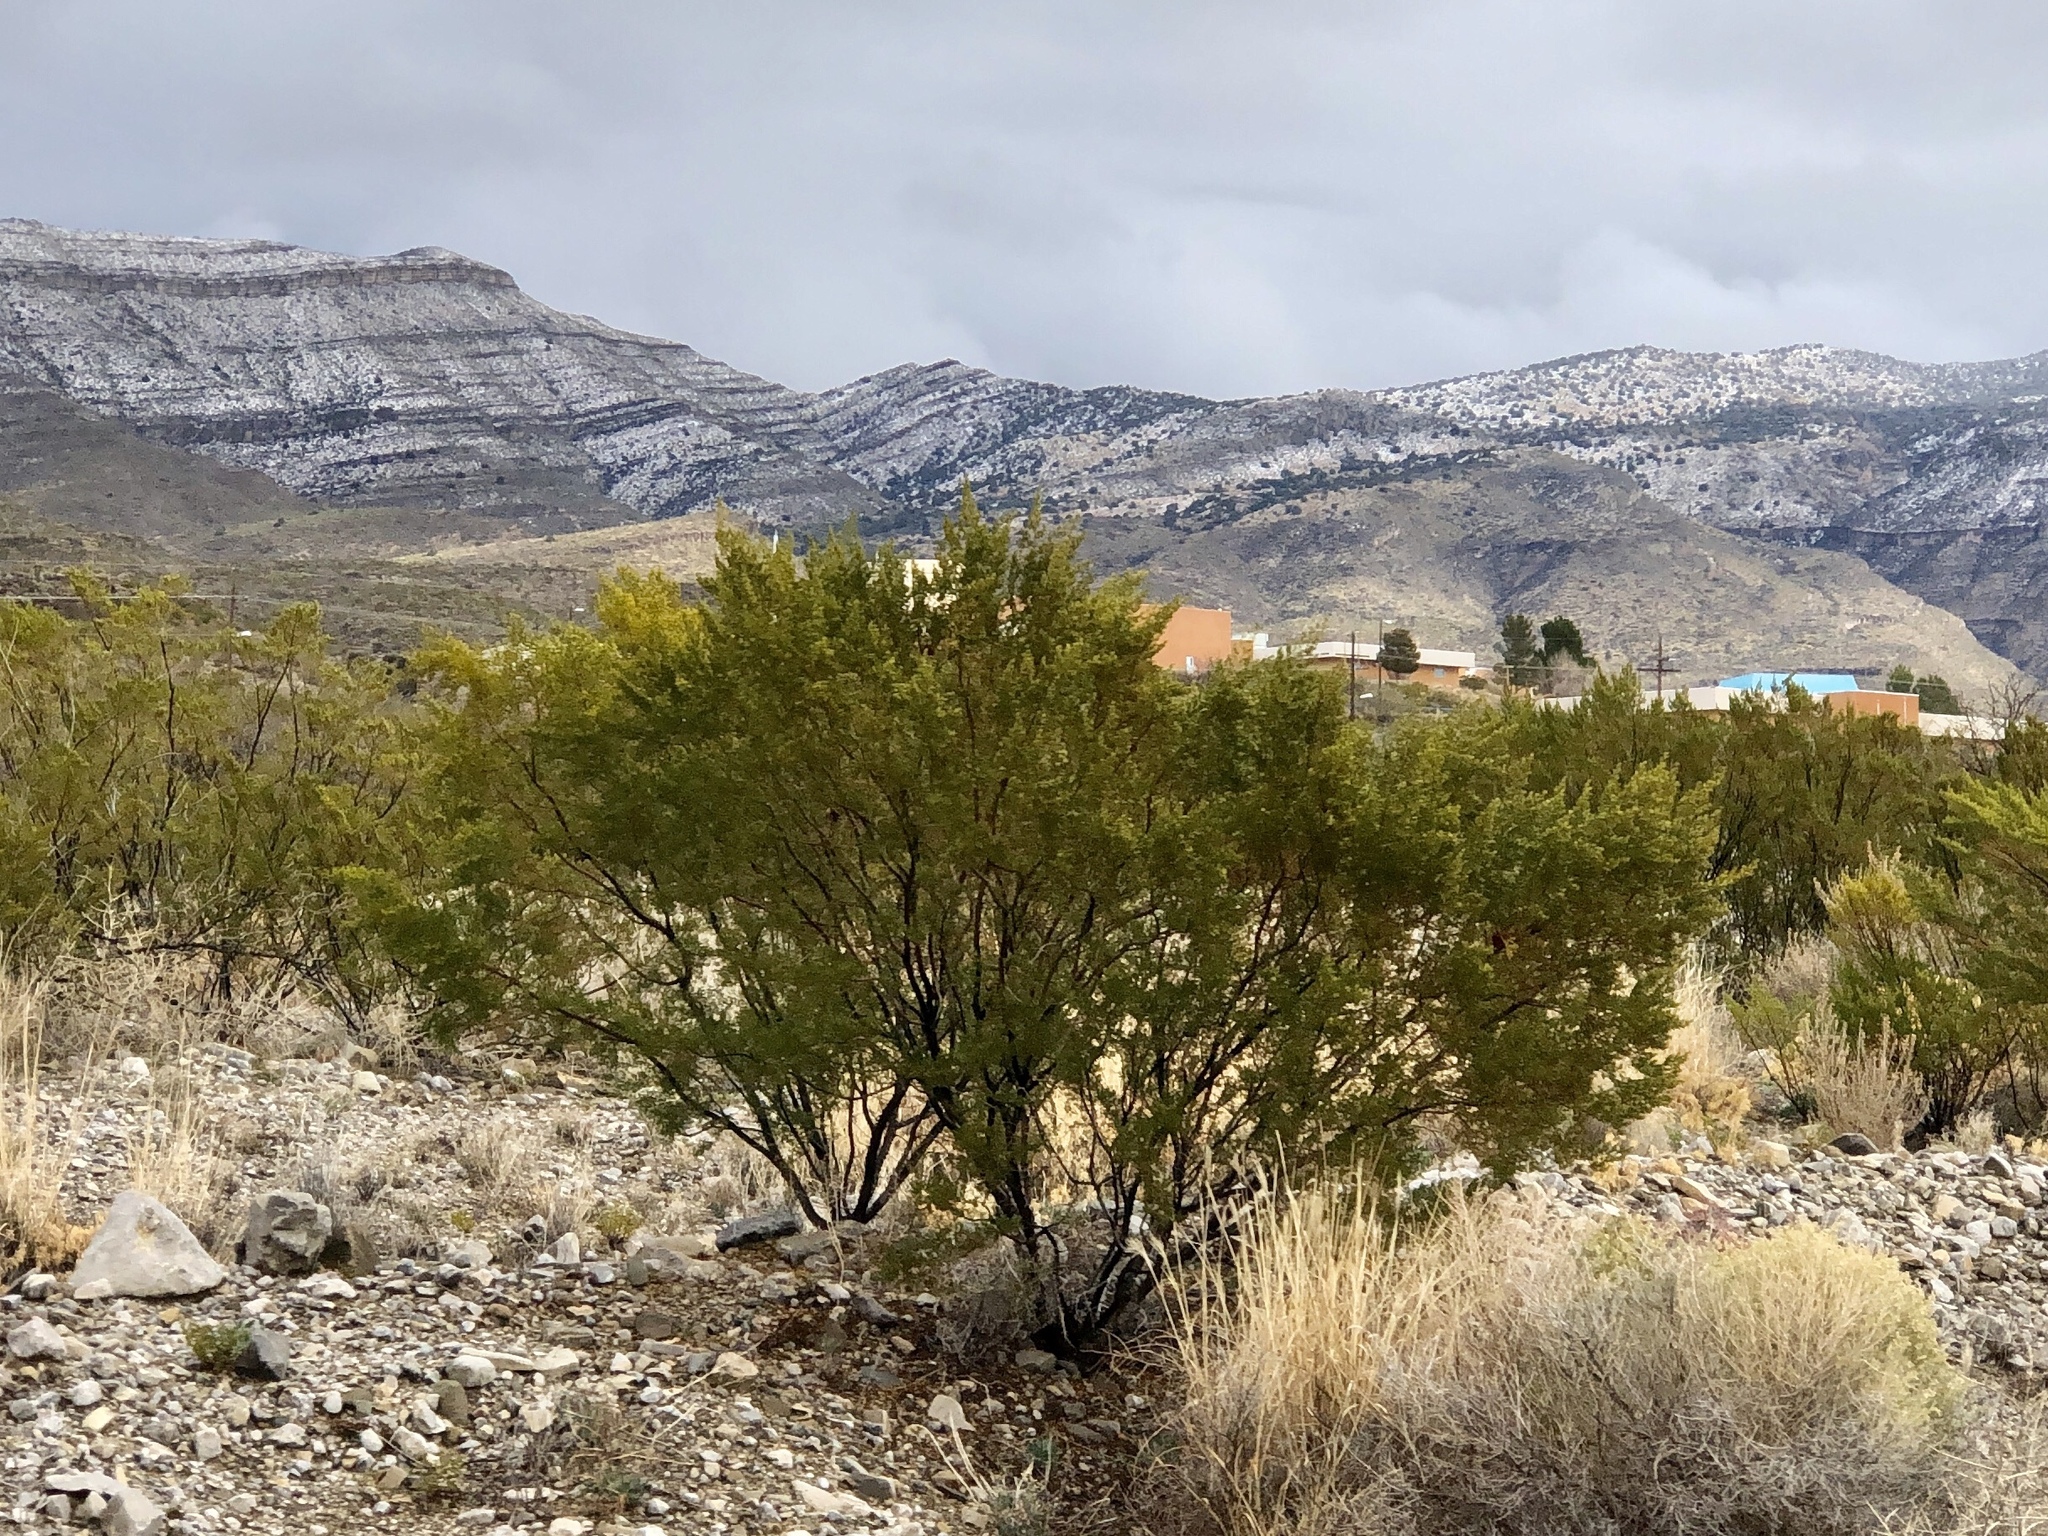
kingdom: Plantae
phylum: Tracheophyta
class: Magnoliopsida
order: Zygophyllales
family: Zygophyllaceae
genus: Larrea
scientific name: Larrea tridentata
